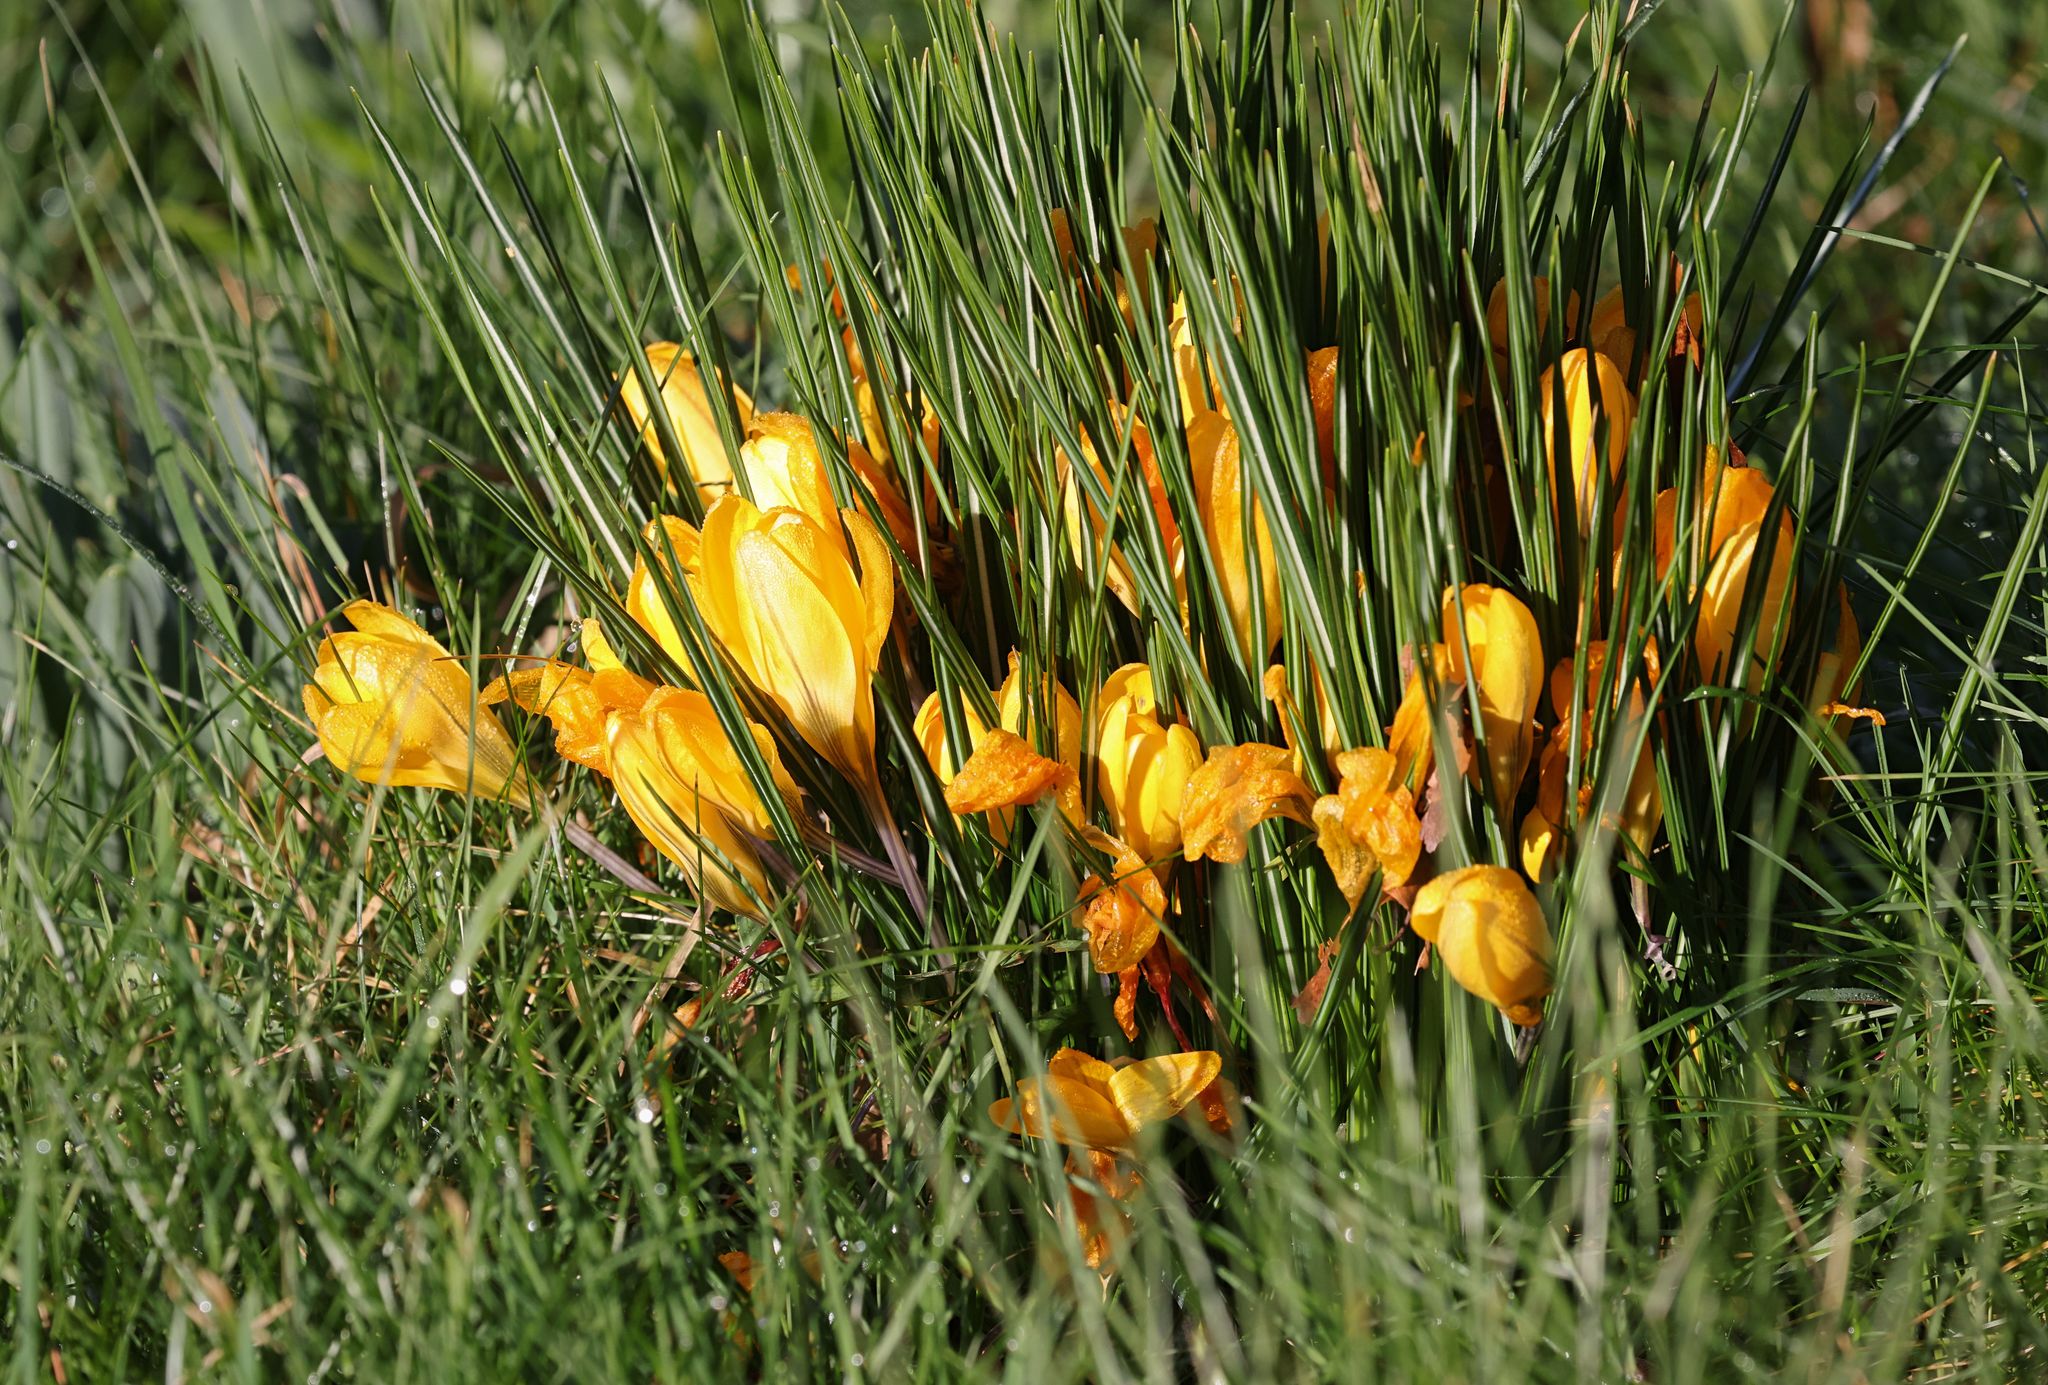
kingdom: Plantae
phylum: Tracheophyta
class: Liliopsida
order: Asparagales
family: Iridaceae
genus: Crocus
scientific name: Crocus luteus
